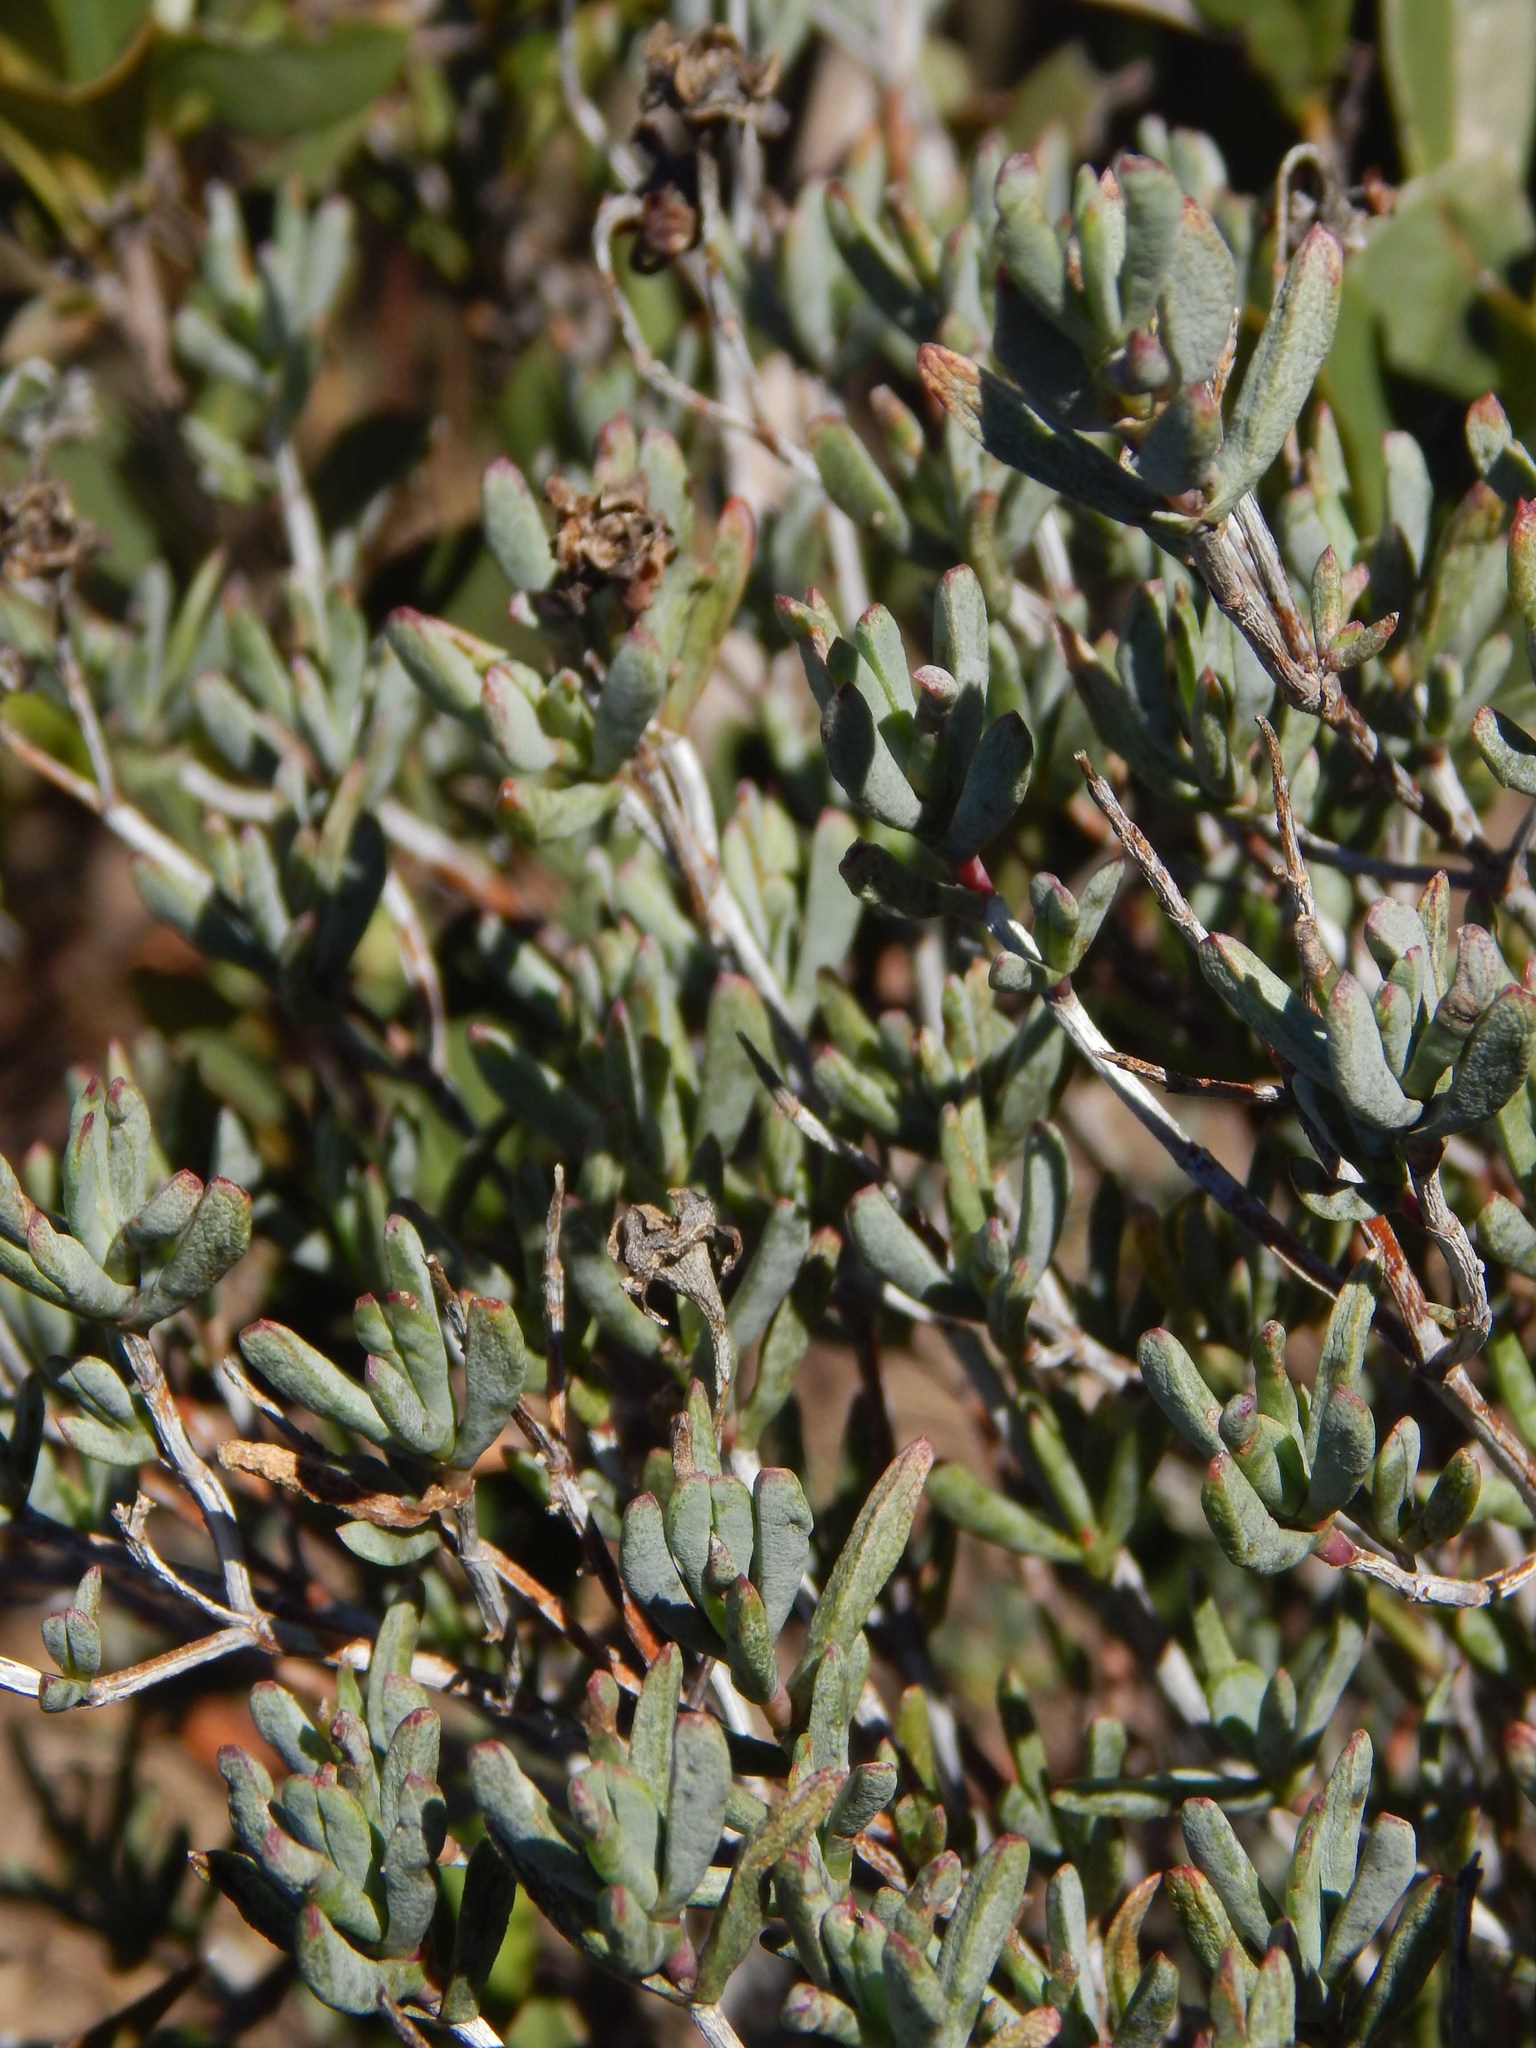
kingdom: Plantae
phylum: Tracheophyta
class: Magnoliopsida
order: Caryophyllales
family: Aizoaceae
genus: Lampranthus
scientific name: Lampranthus stipulaceus
